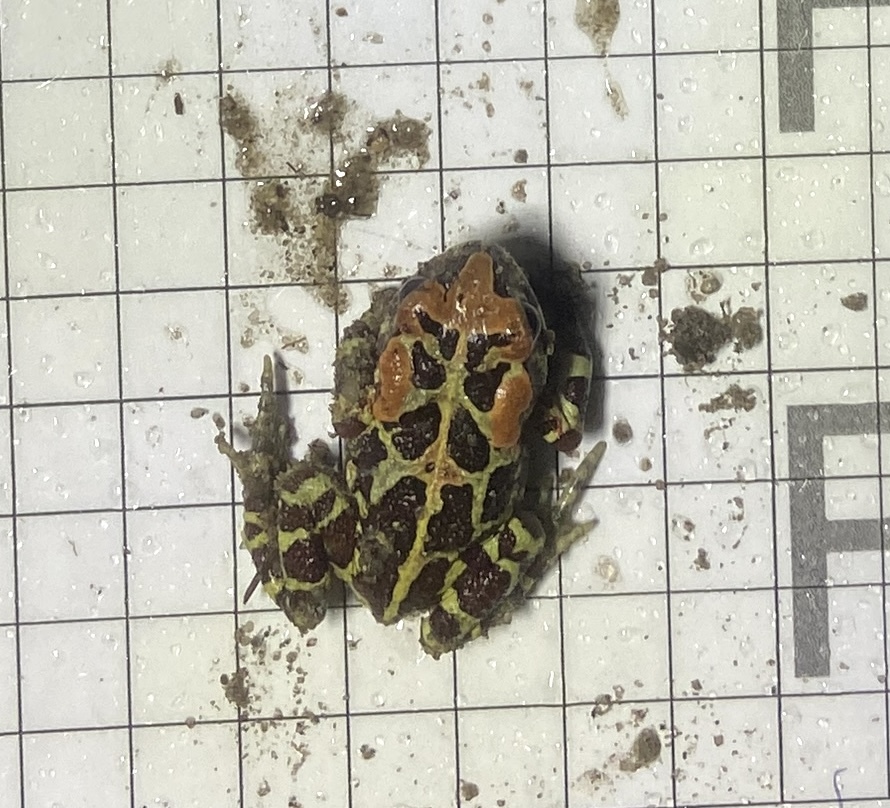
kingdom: Animalia
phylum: Chordata
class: Amphibia
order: Anura
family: Bufonidae
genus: Sclerophrys
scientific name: Sclerophrys pantherina
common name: Panther toad
